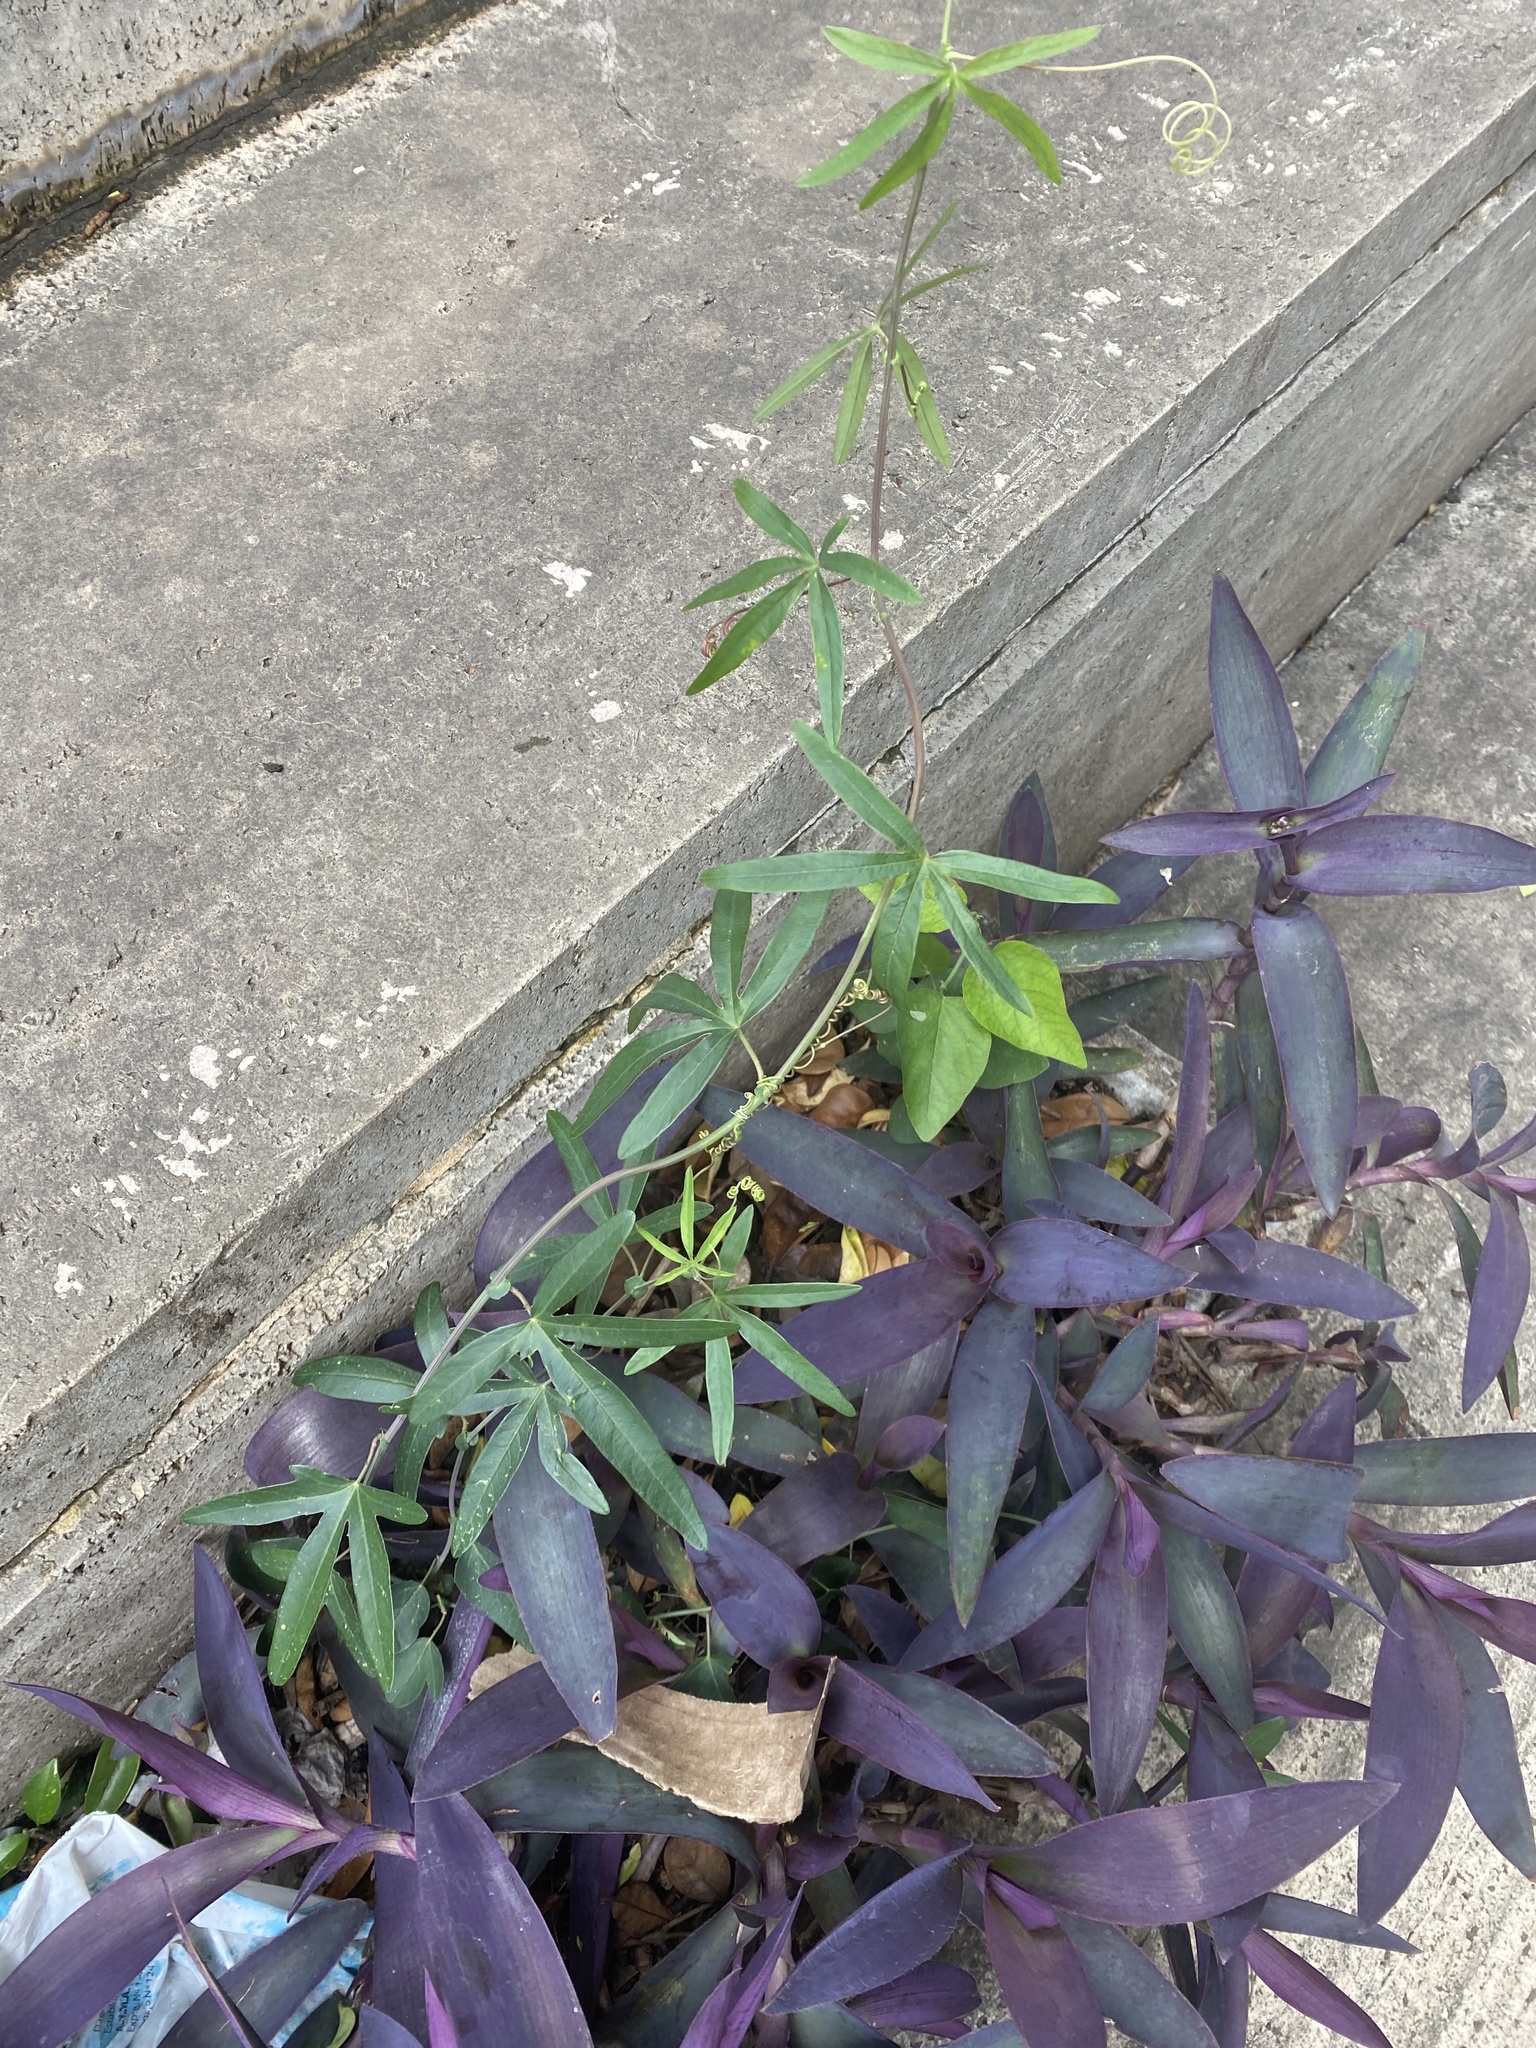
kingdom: Plantae
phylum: Tracheophyta
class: Magnoliopsida
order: Malpighiales
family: Passifloraceae
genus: Passiflora
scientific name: Passiflora caerulea
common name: Blue passionflower
